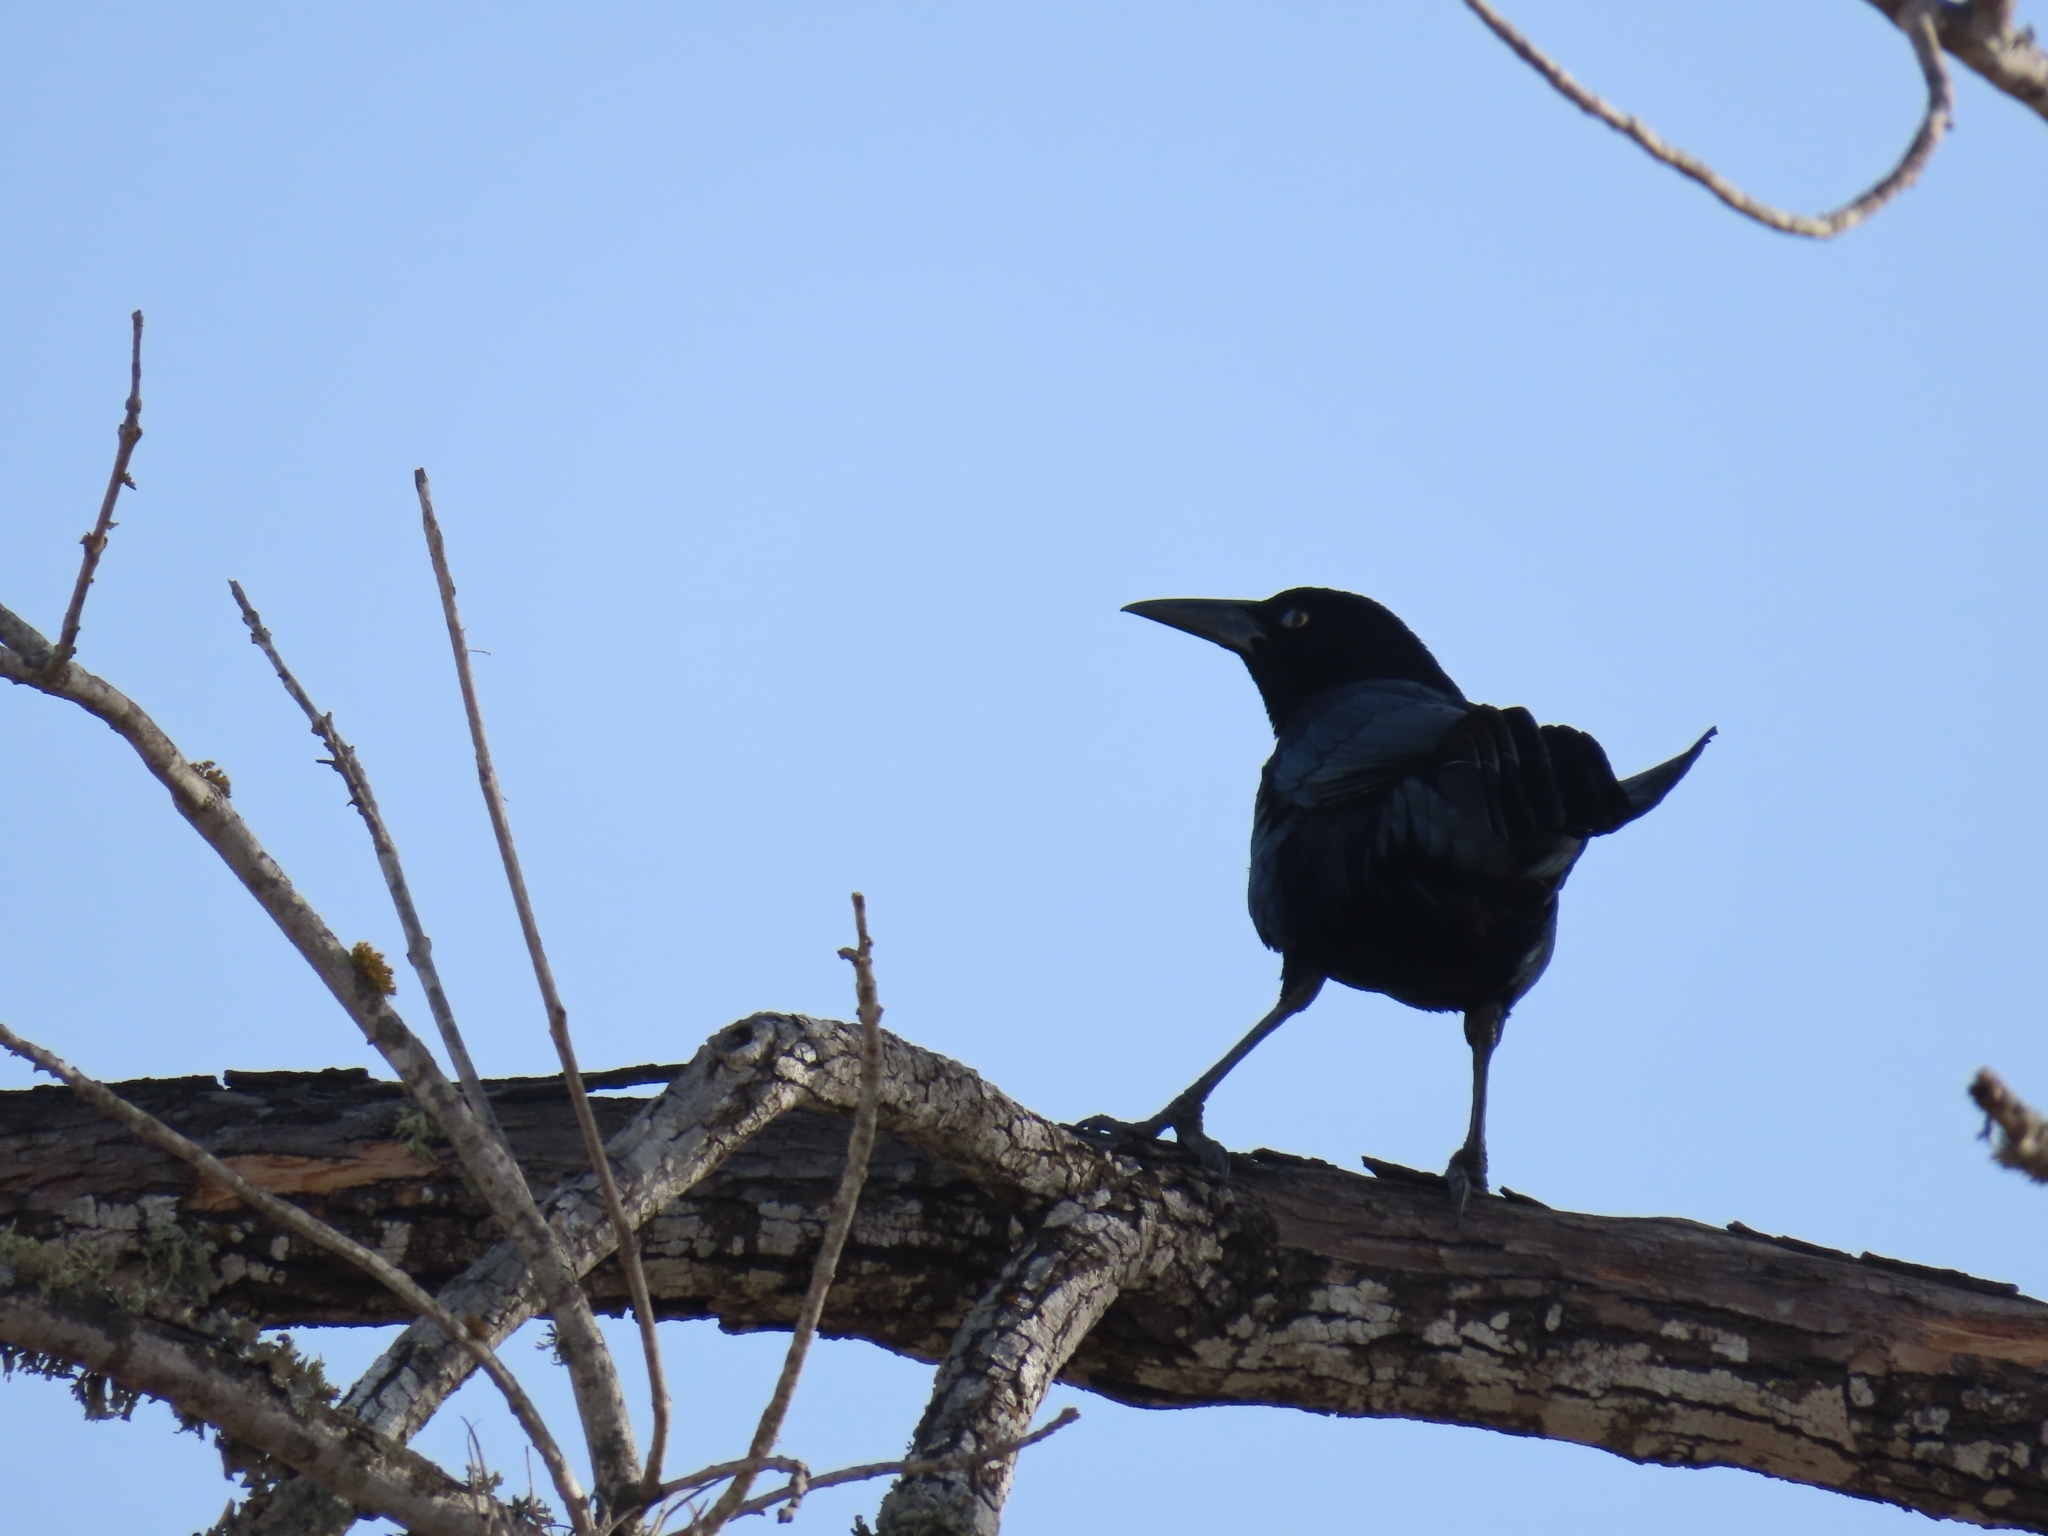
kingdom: Animalia
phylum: Chordata
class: Aves
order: Passeriformes
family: Icteridae
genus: Quiscalus
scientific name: Quiscalus mexicanus
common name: Great-tailed grackle
